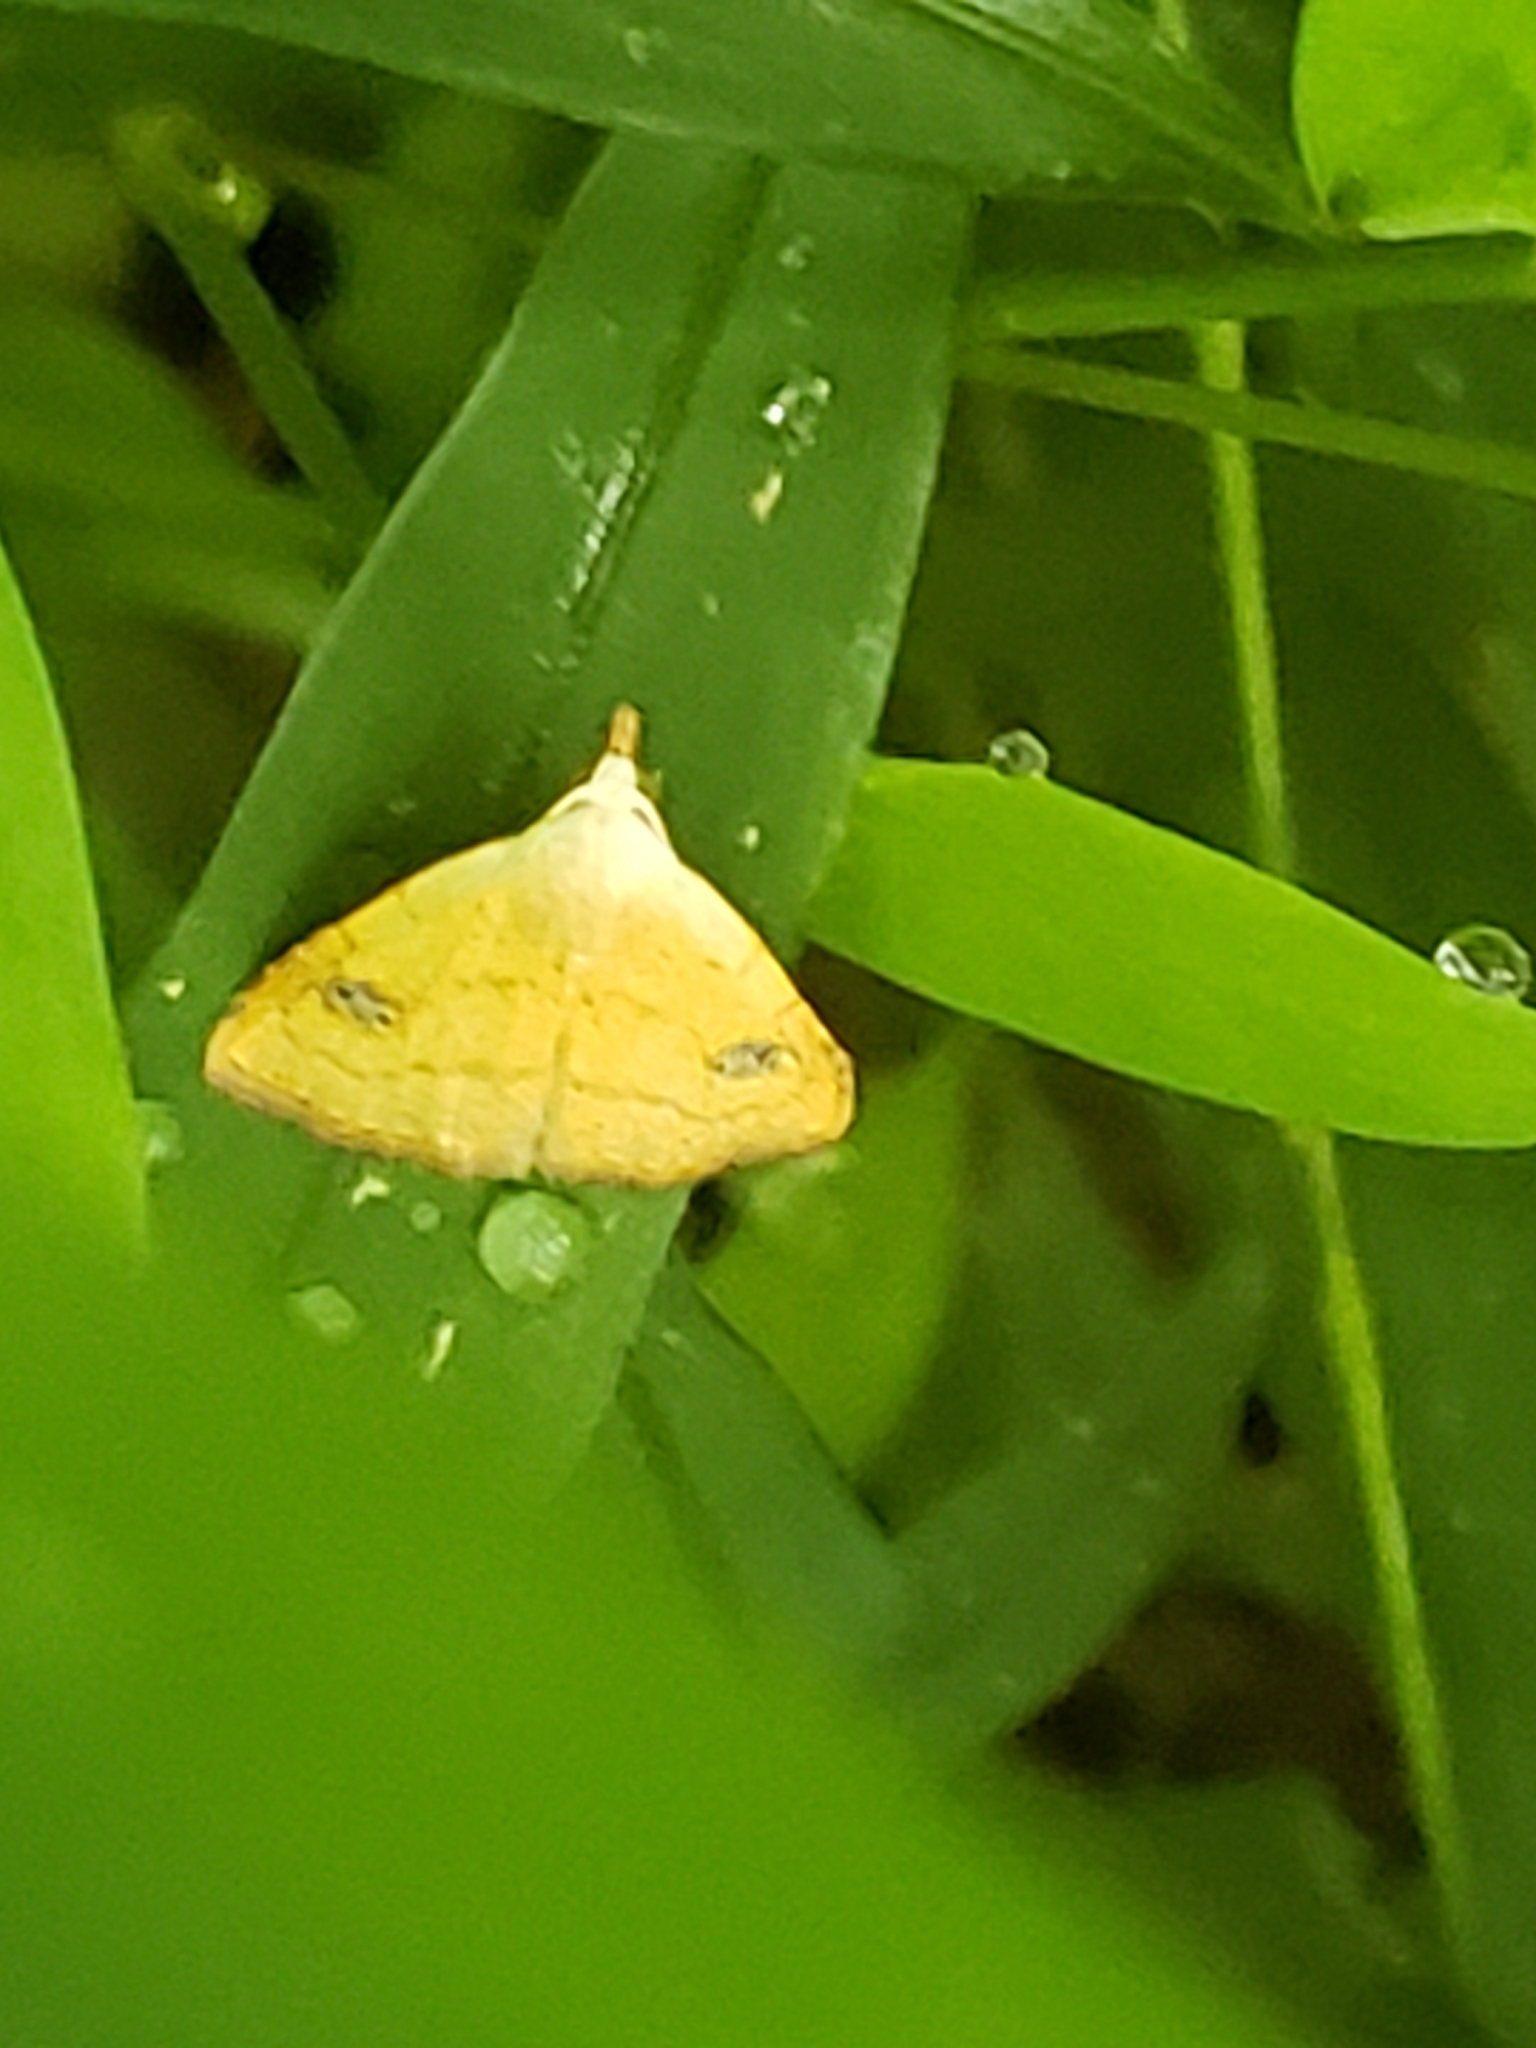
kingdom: Animalia
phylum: Arthropoda
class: Insecta
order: Lepidoptera
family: Erebidae
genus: Rivula
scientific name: Rivula propinqualis
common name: Spotted grass moth
